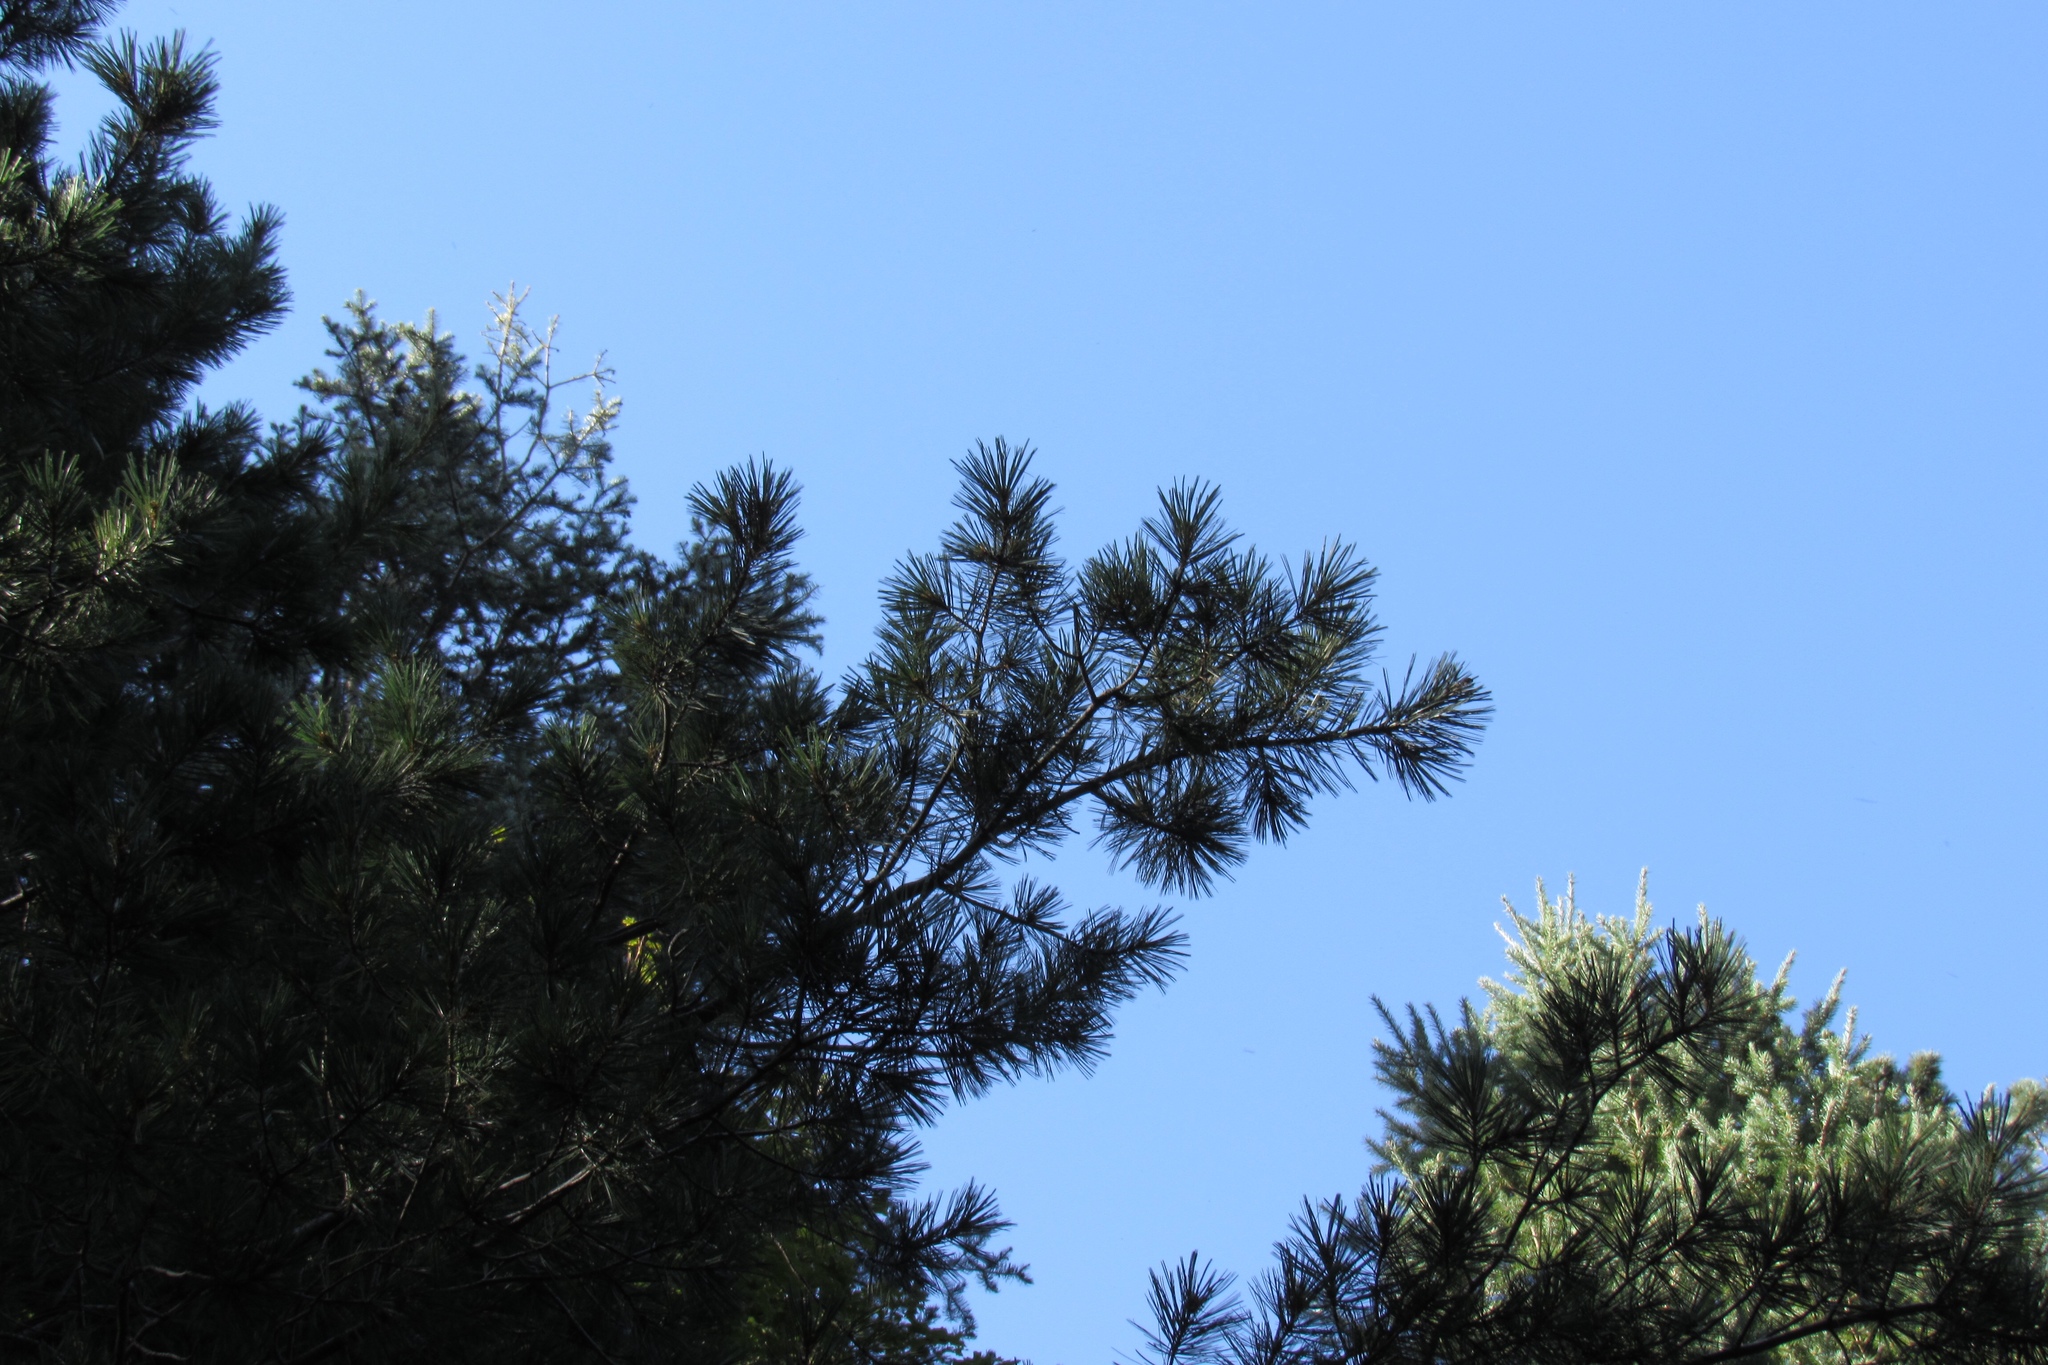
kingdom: Plantae
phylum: Tracheophyta
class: Pinopsida
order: Pinales
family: Pinaceae
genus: Pinus
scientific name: Pinus strobiformis
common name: Southwestern white pine
